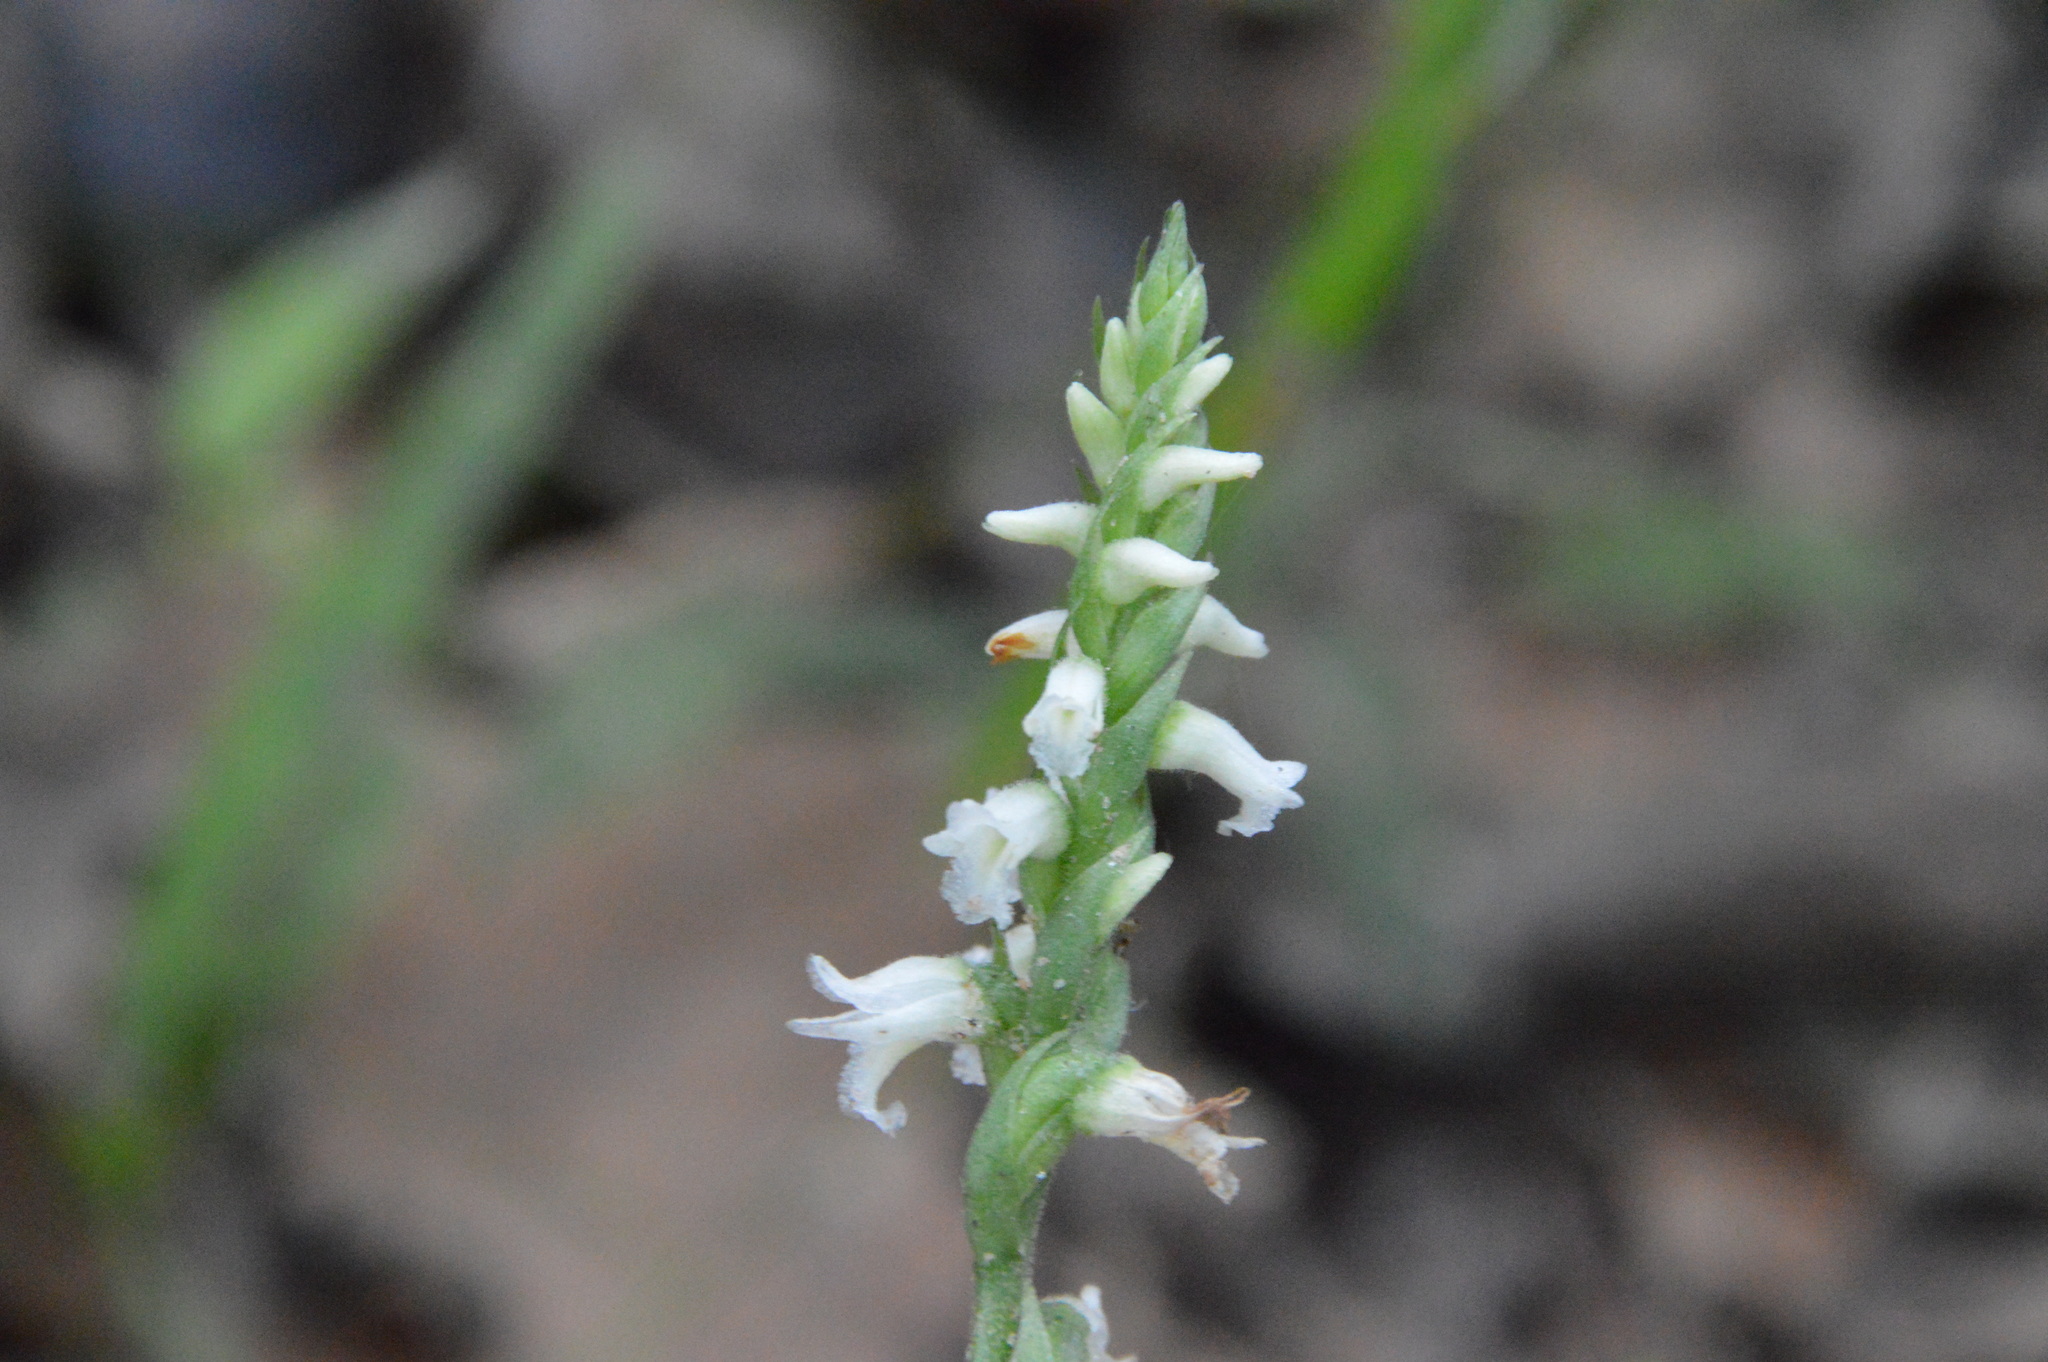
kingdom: Plantae
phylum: Tracheophyta
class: Liliopsida
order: Asparagales
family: Orchidaceae
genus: Spiranthes
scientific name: Spiranthes ovalis
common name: October ladies'-tresses
